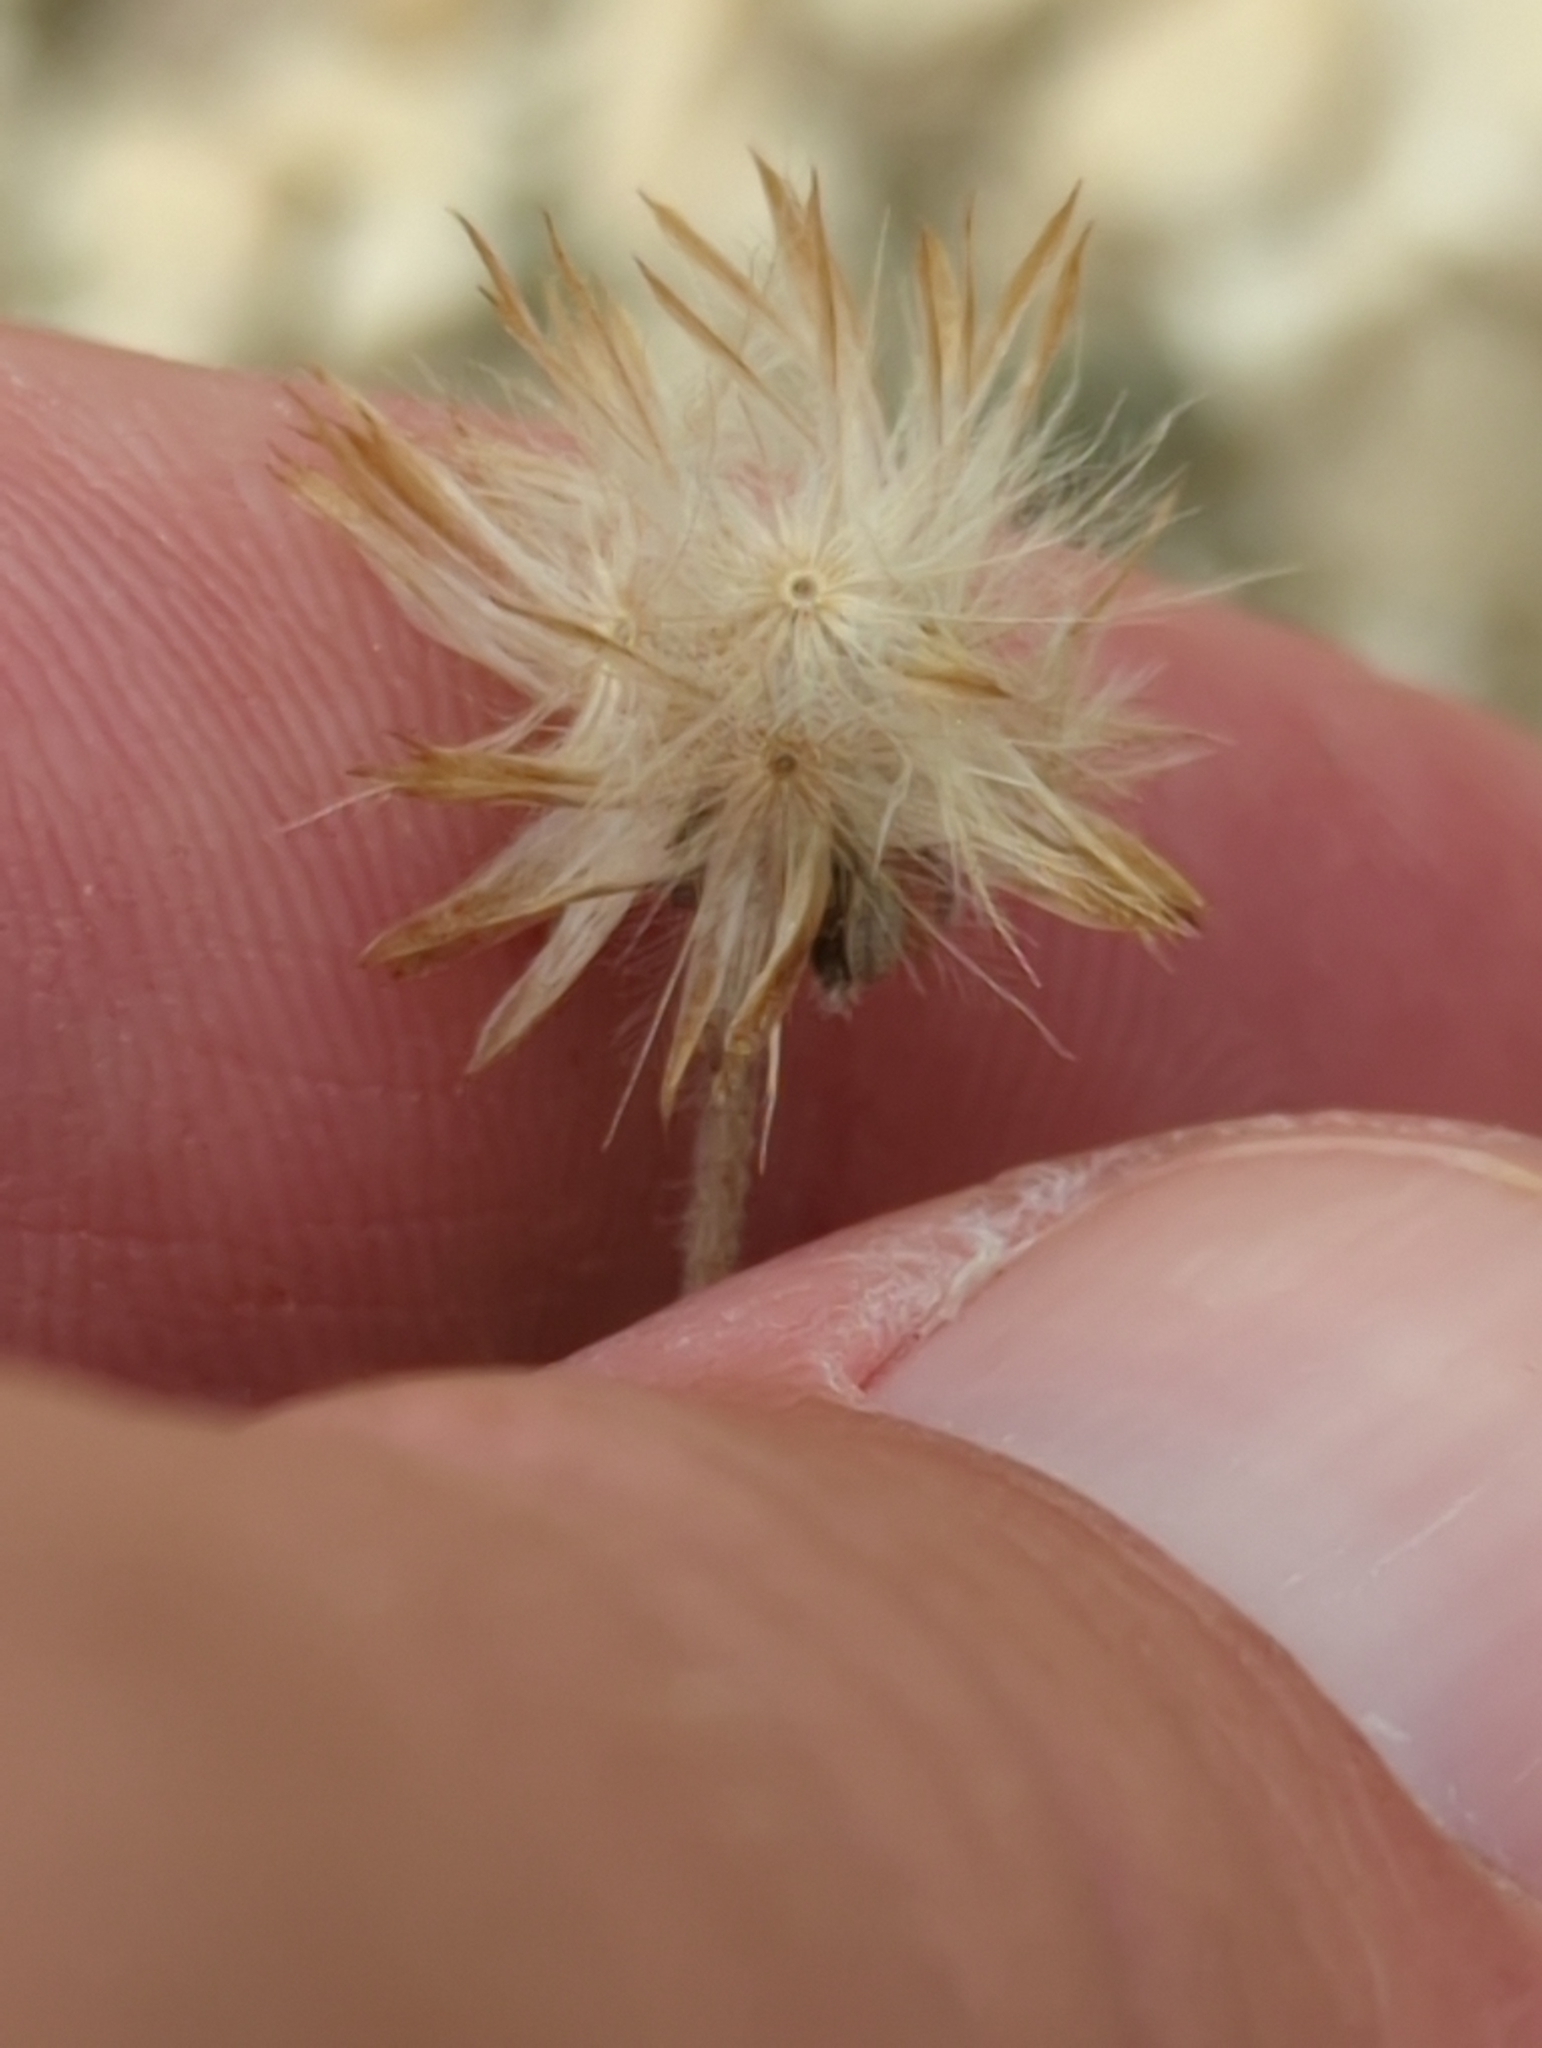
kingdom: Plantae
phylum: Tracheophyta
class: Magnoliopsida
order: Asterales
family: Asteraceae
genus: Tridax
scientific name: Tridax procumbens
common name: Coatbuttons
